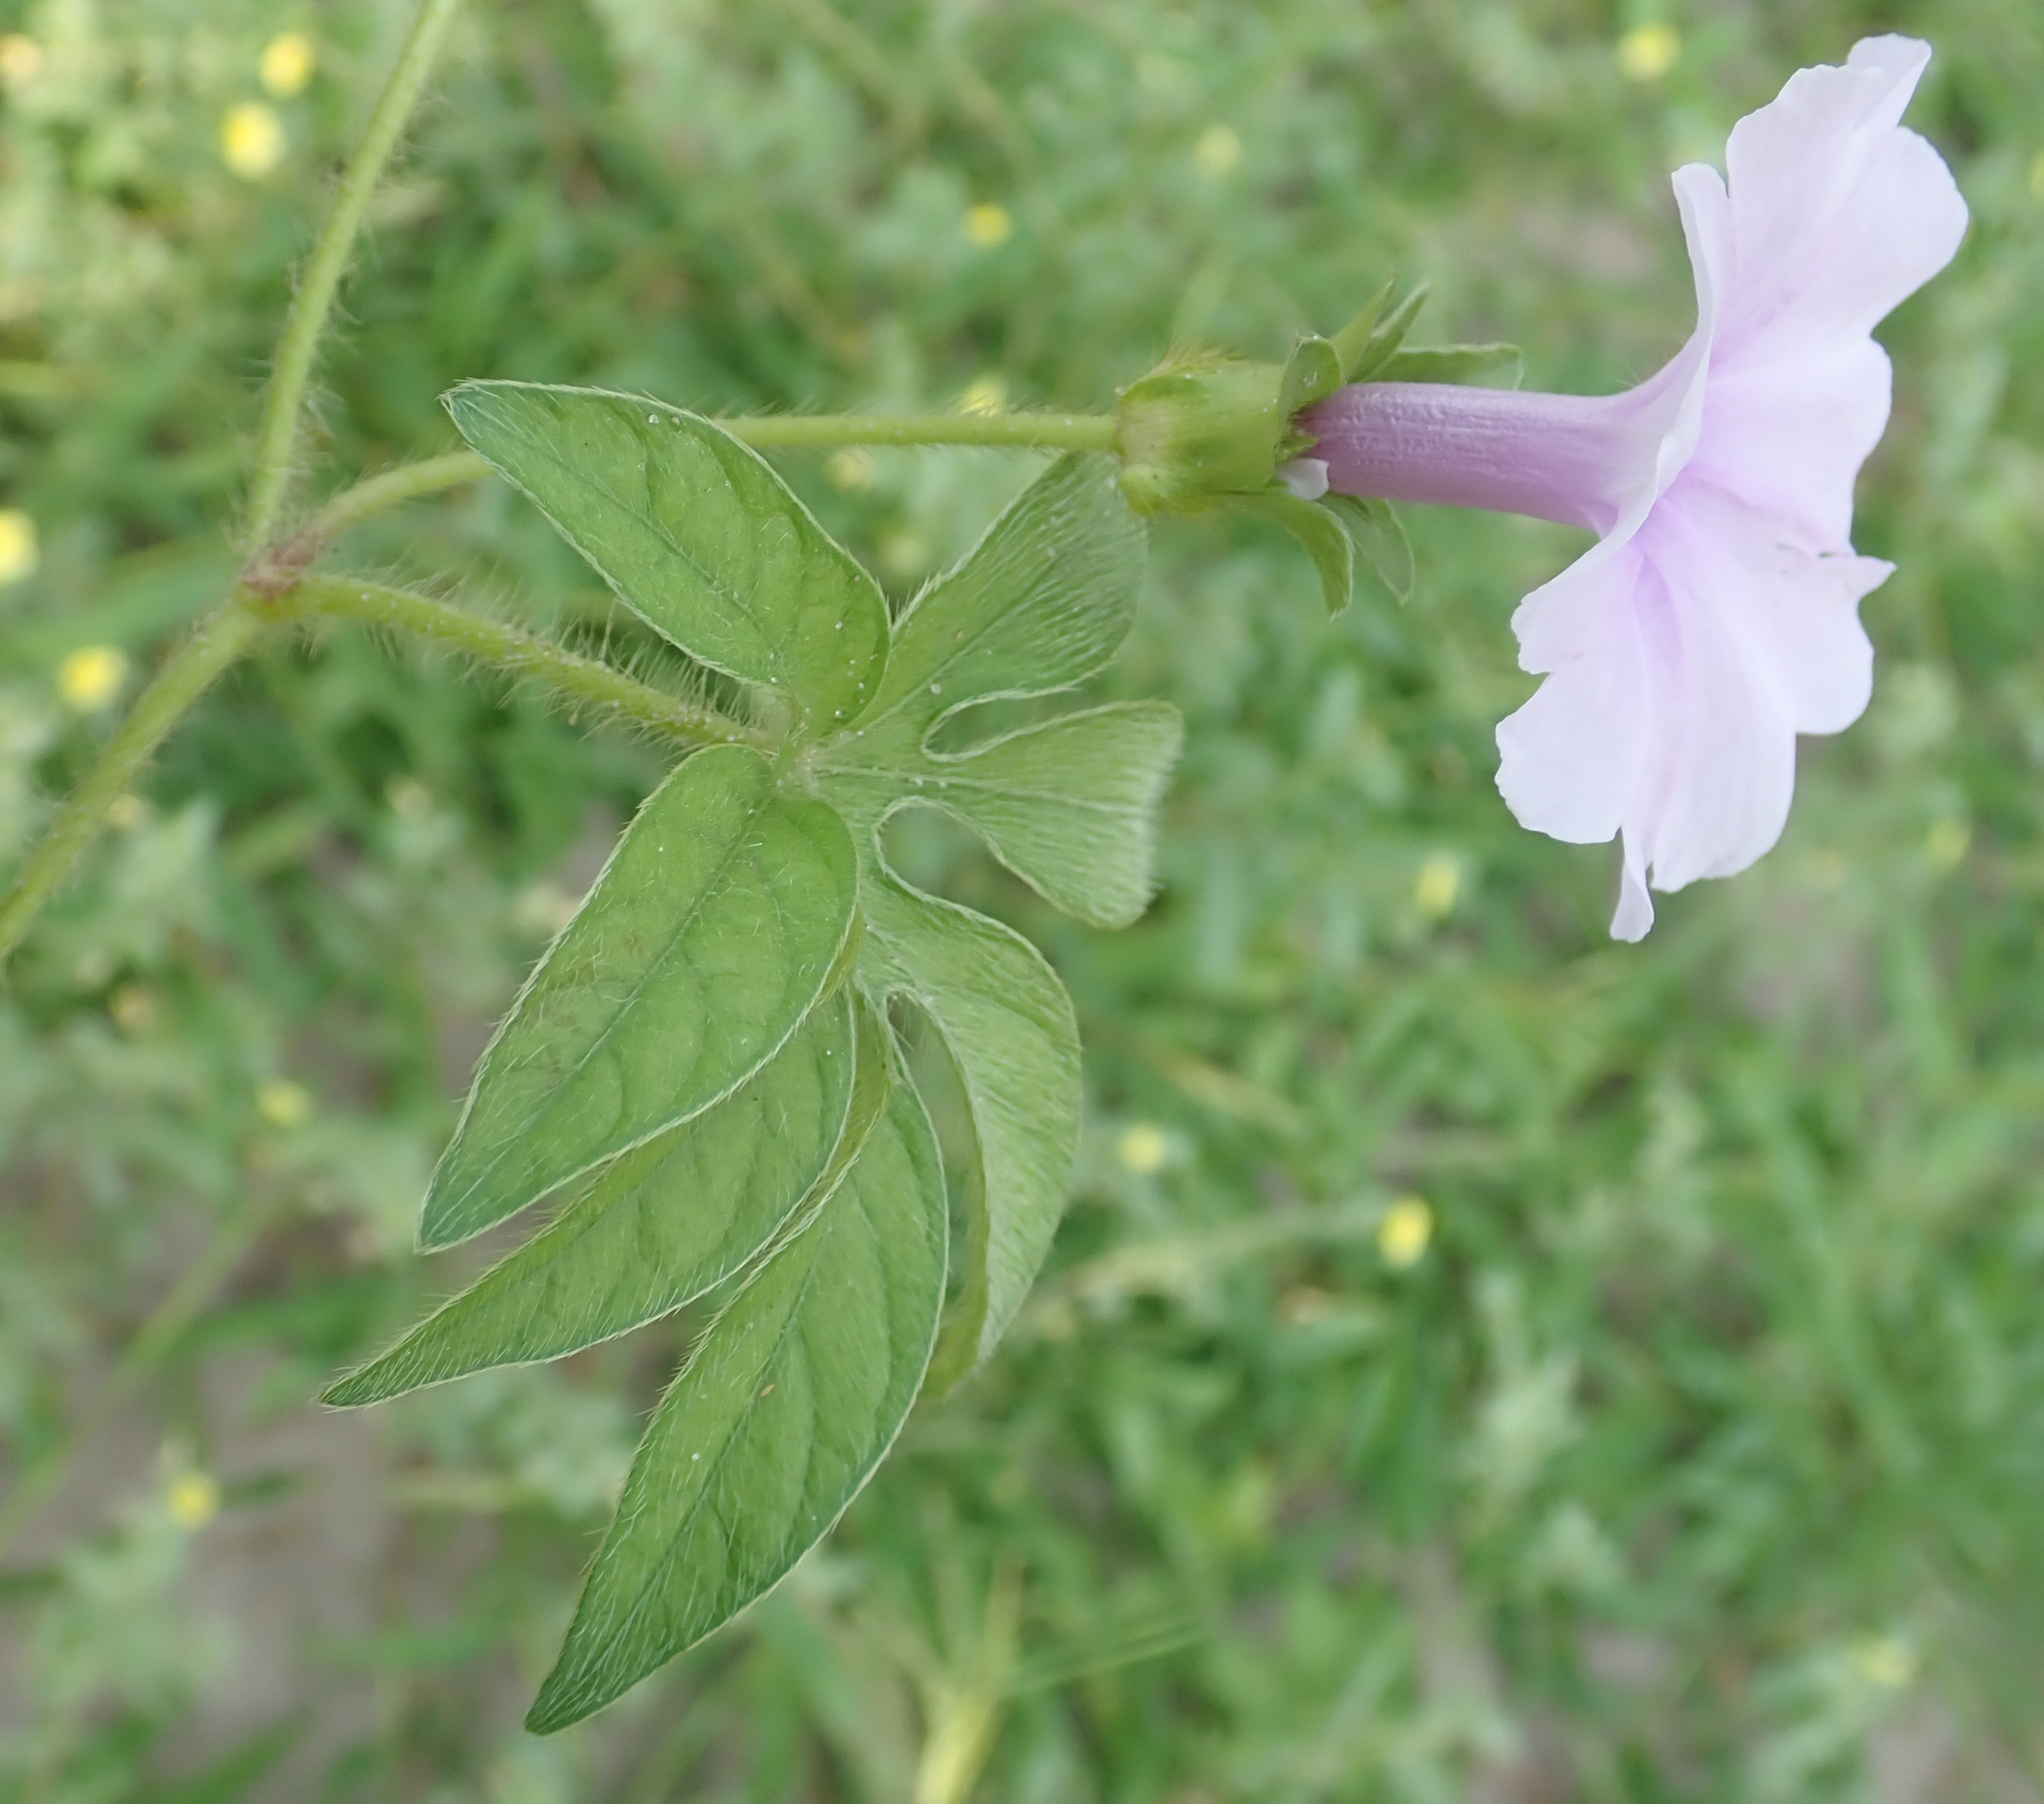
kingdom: Plantae
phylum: Tracheophyta
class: Magnoliopsida
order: Solanales
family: Convolvulaceae
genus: Ipomoea
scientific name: Ipomoea pes-tigridis
